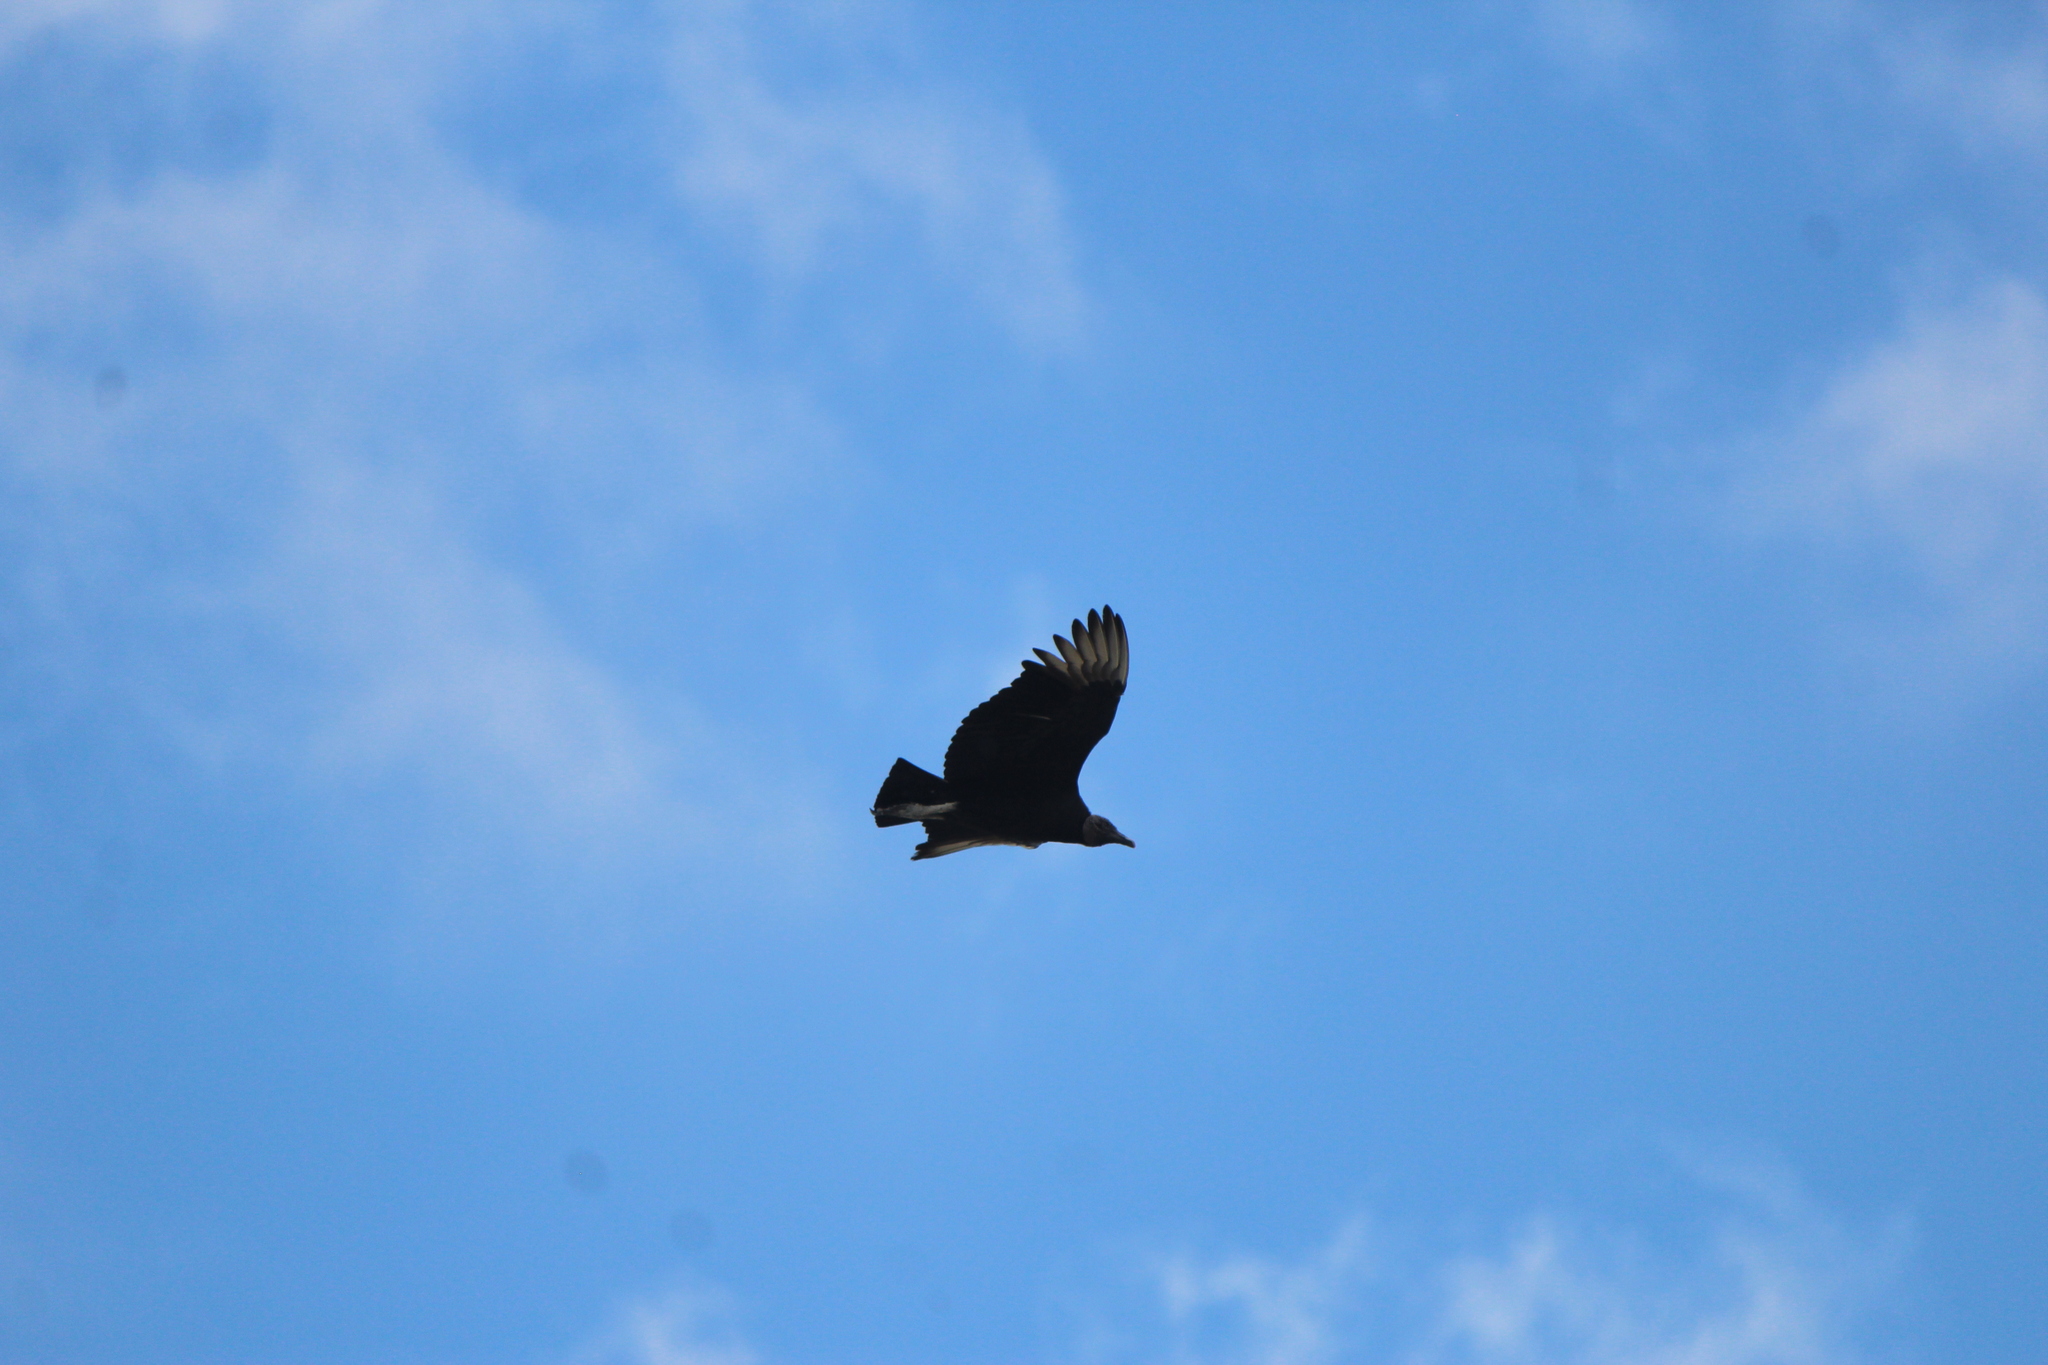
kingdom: Animalia
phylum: Chordata
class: Aves
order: Accipitriformes
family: Cathartidae
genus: Coragyps
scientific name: Coragyps atratus
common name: Black vulture
